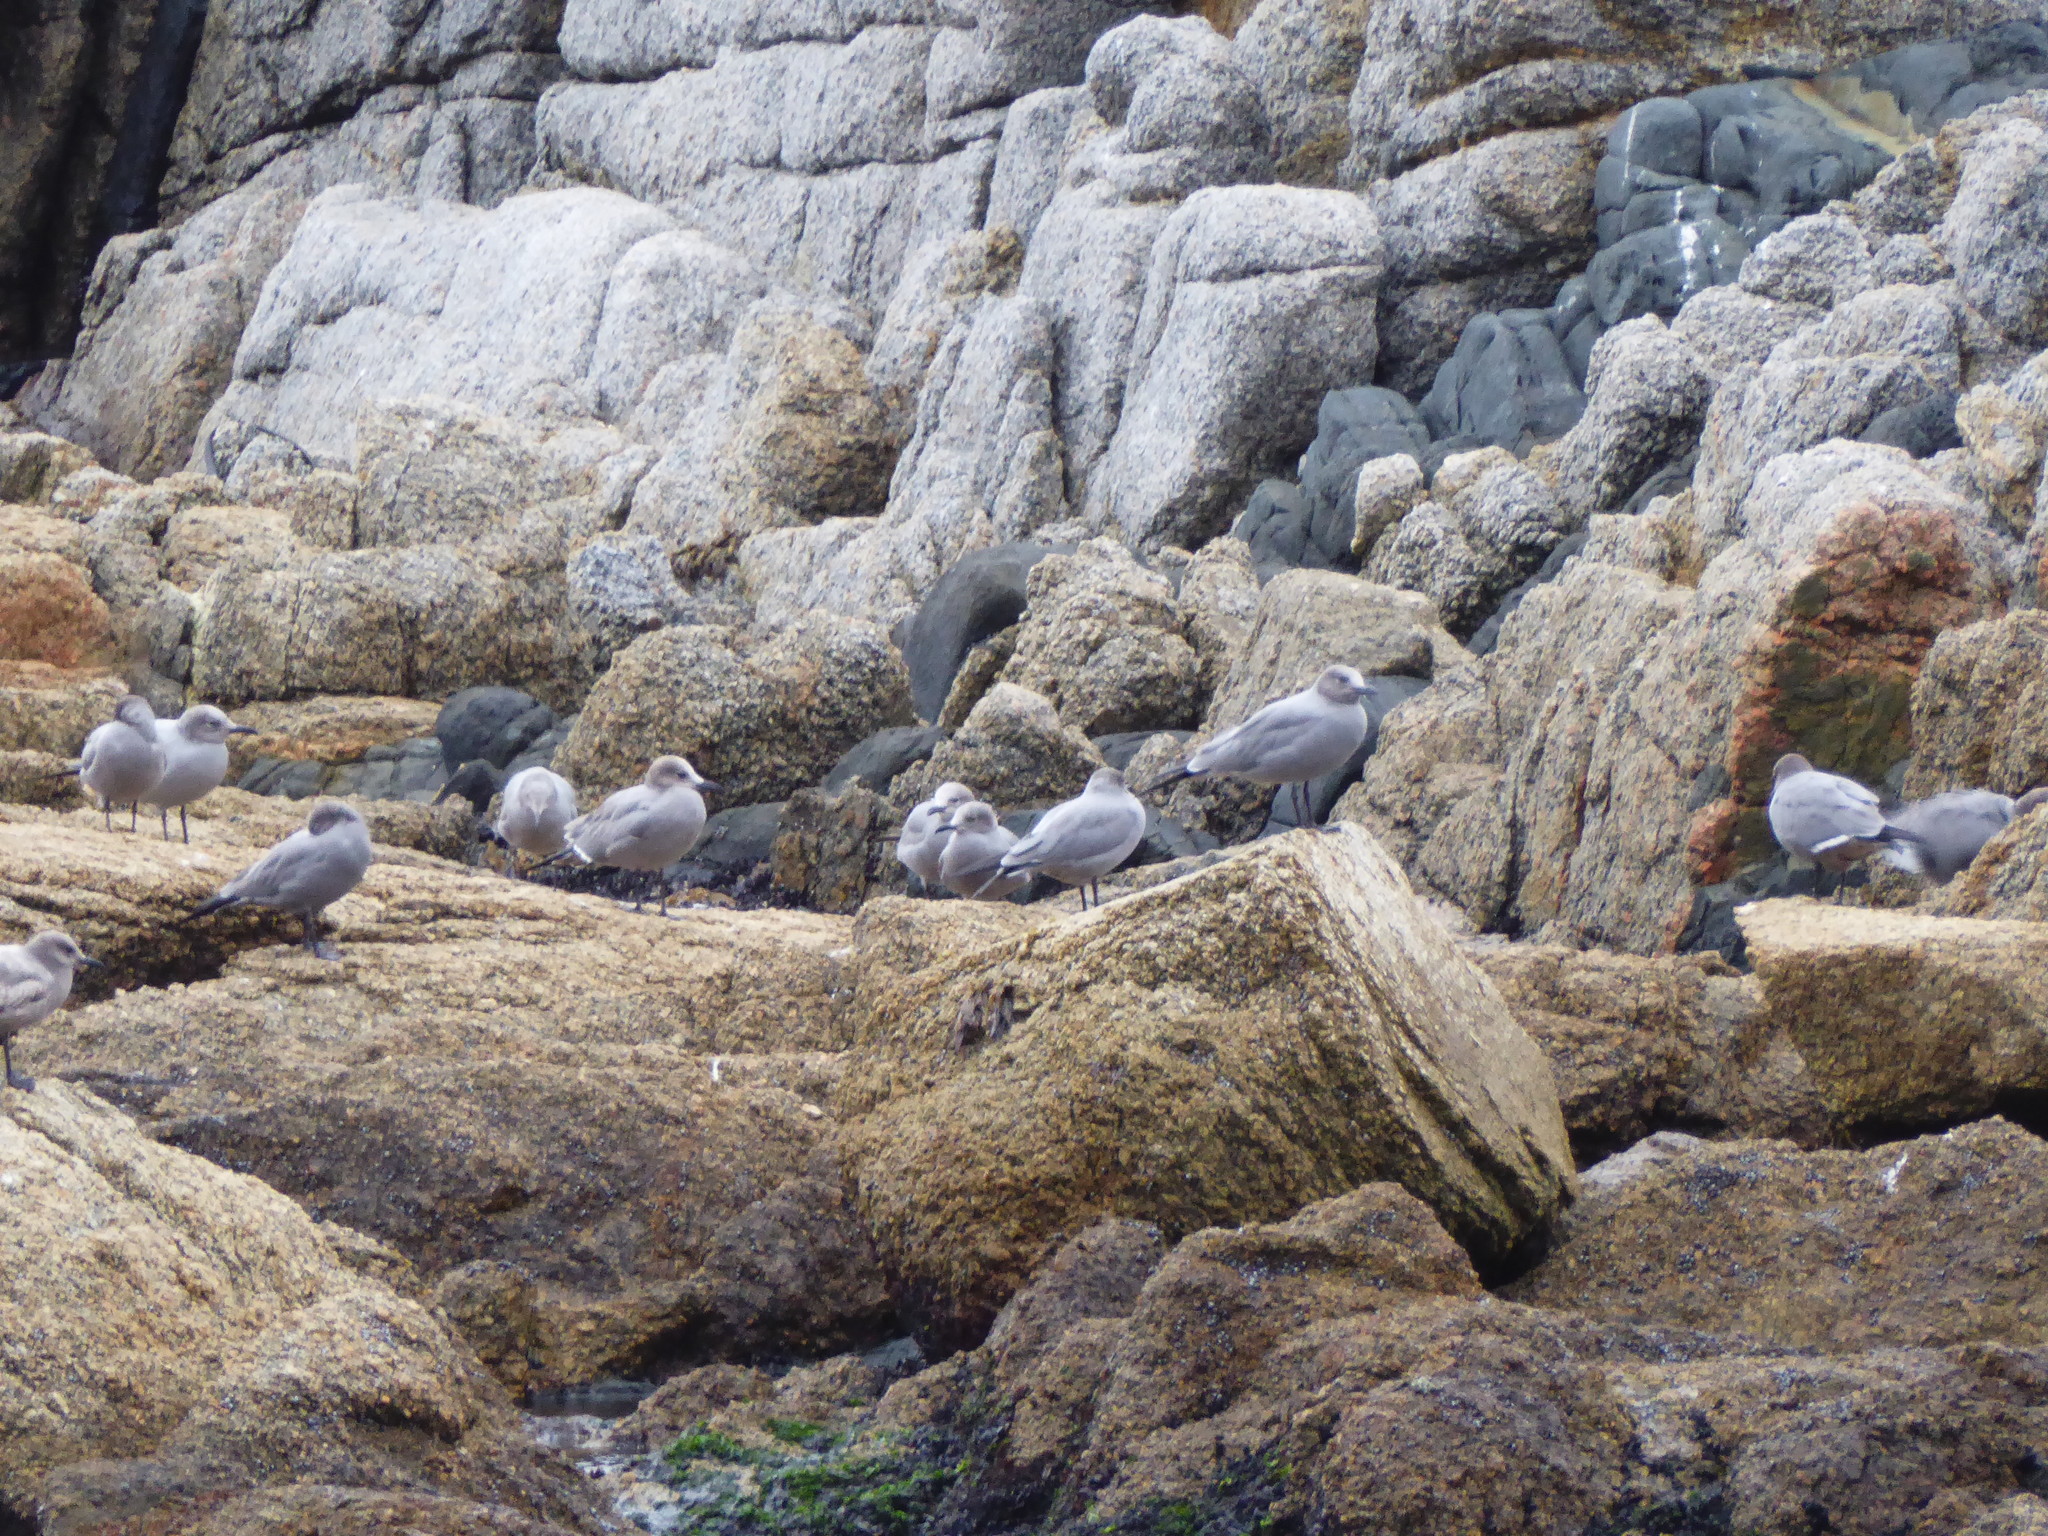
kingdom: Animalia
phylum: Chordata
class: Aves
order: Charadriiformes
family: Laridae
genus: Leucophaeus
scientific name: Leucophaeus modestus
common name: Gray gull
